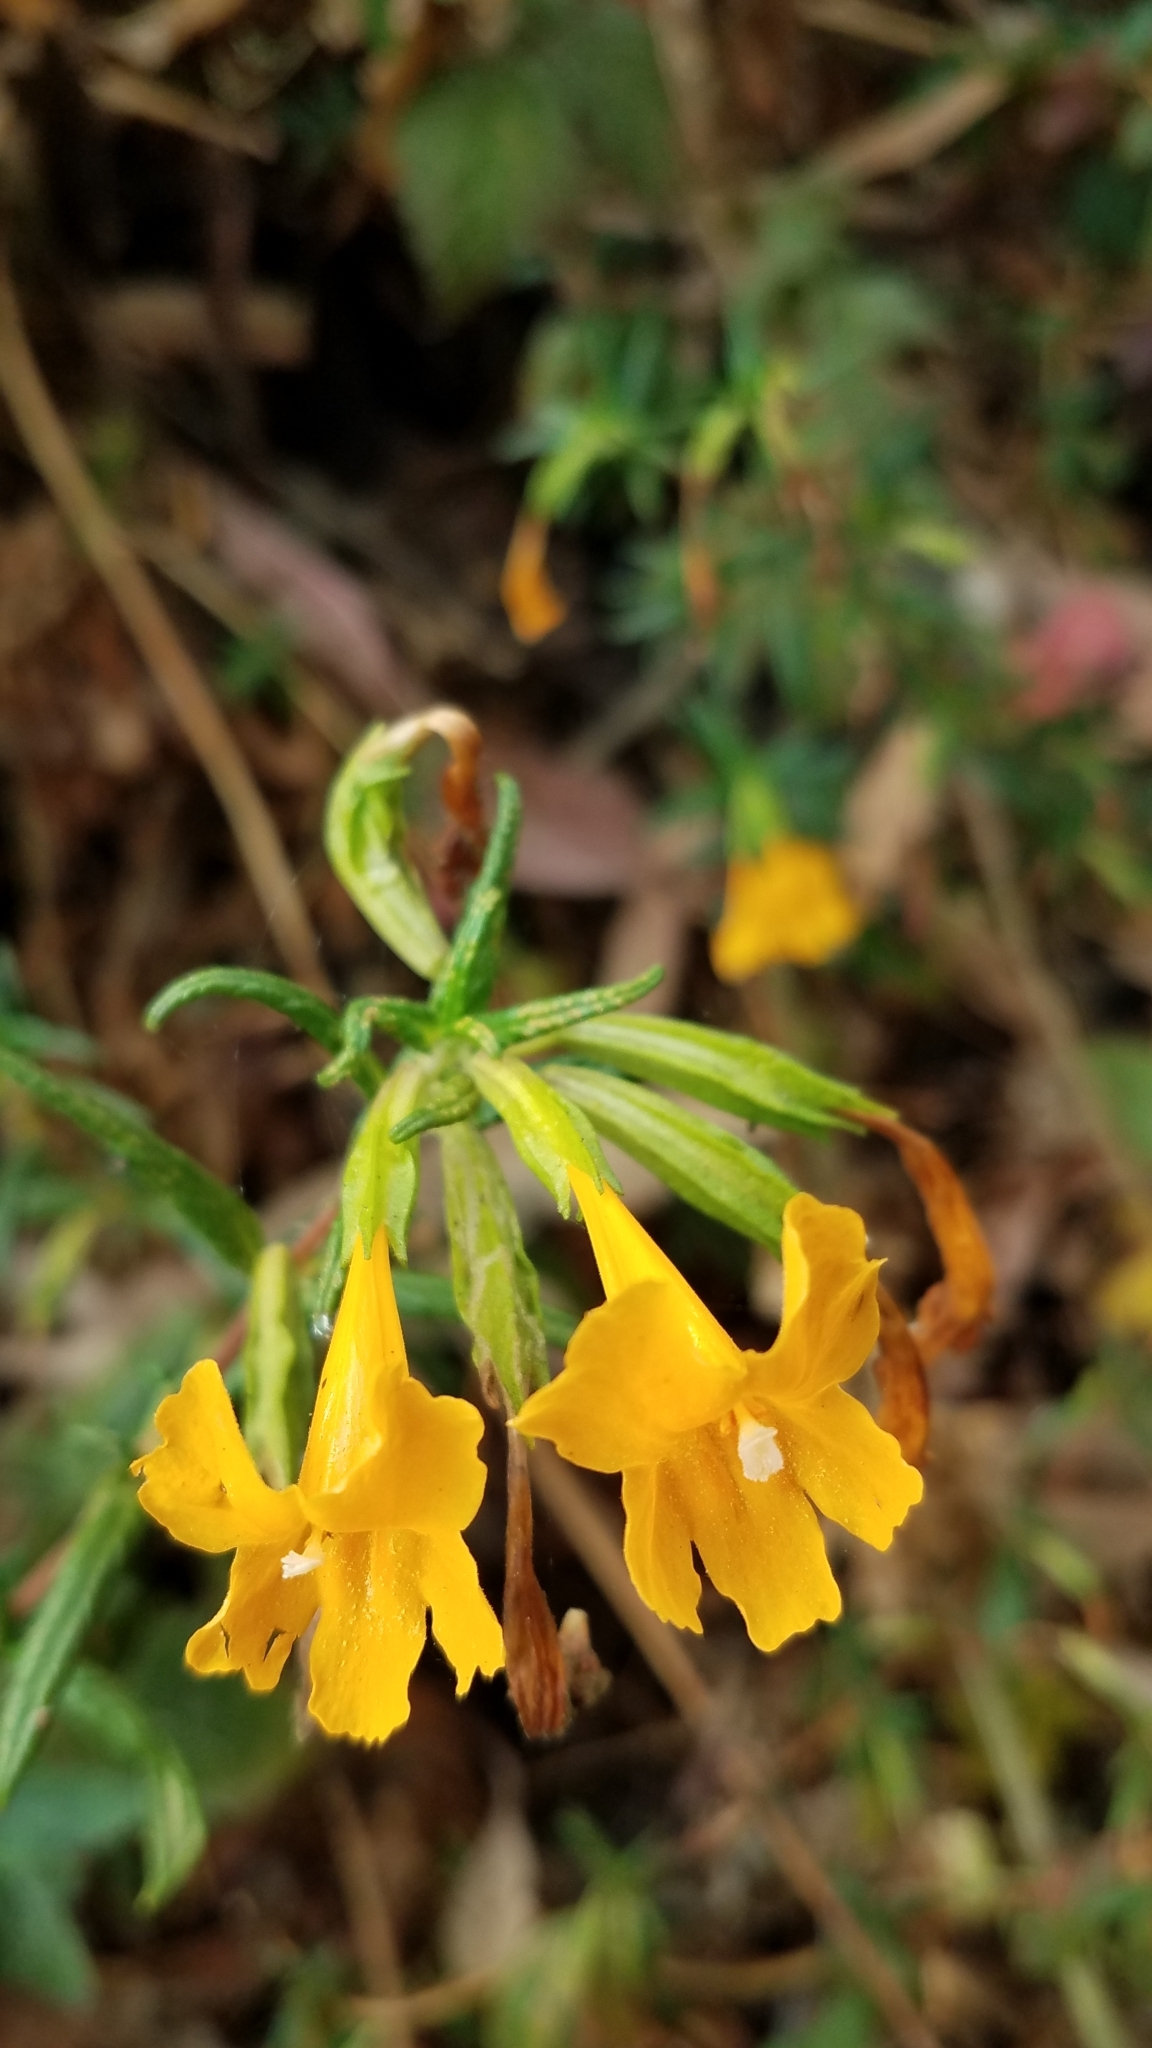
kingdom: Plantae
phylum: Tracheophyta
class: Magnoliopsida
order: Lamiales
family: Phrymaceae
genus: Diplacus
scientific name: Diplacus aurantiacus
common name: Bush monkey-flower
